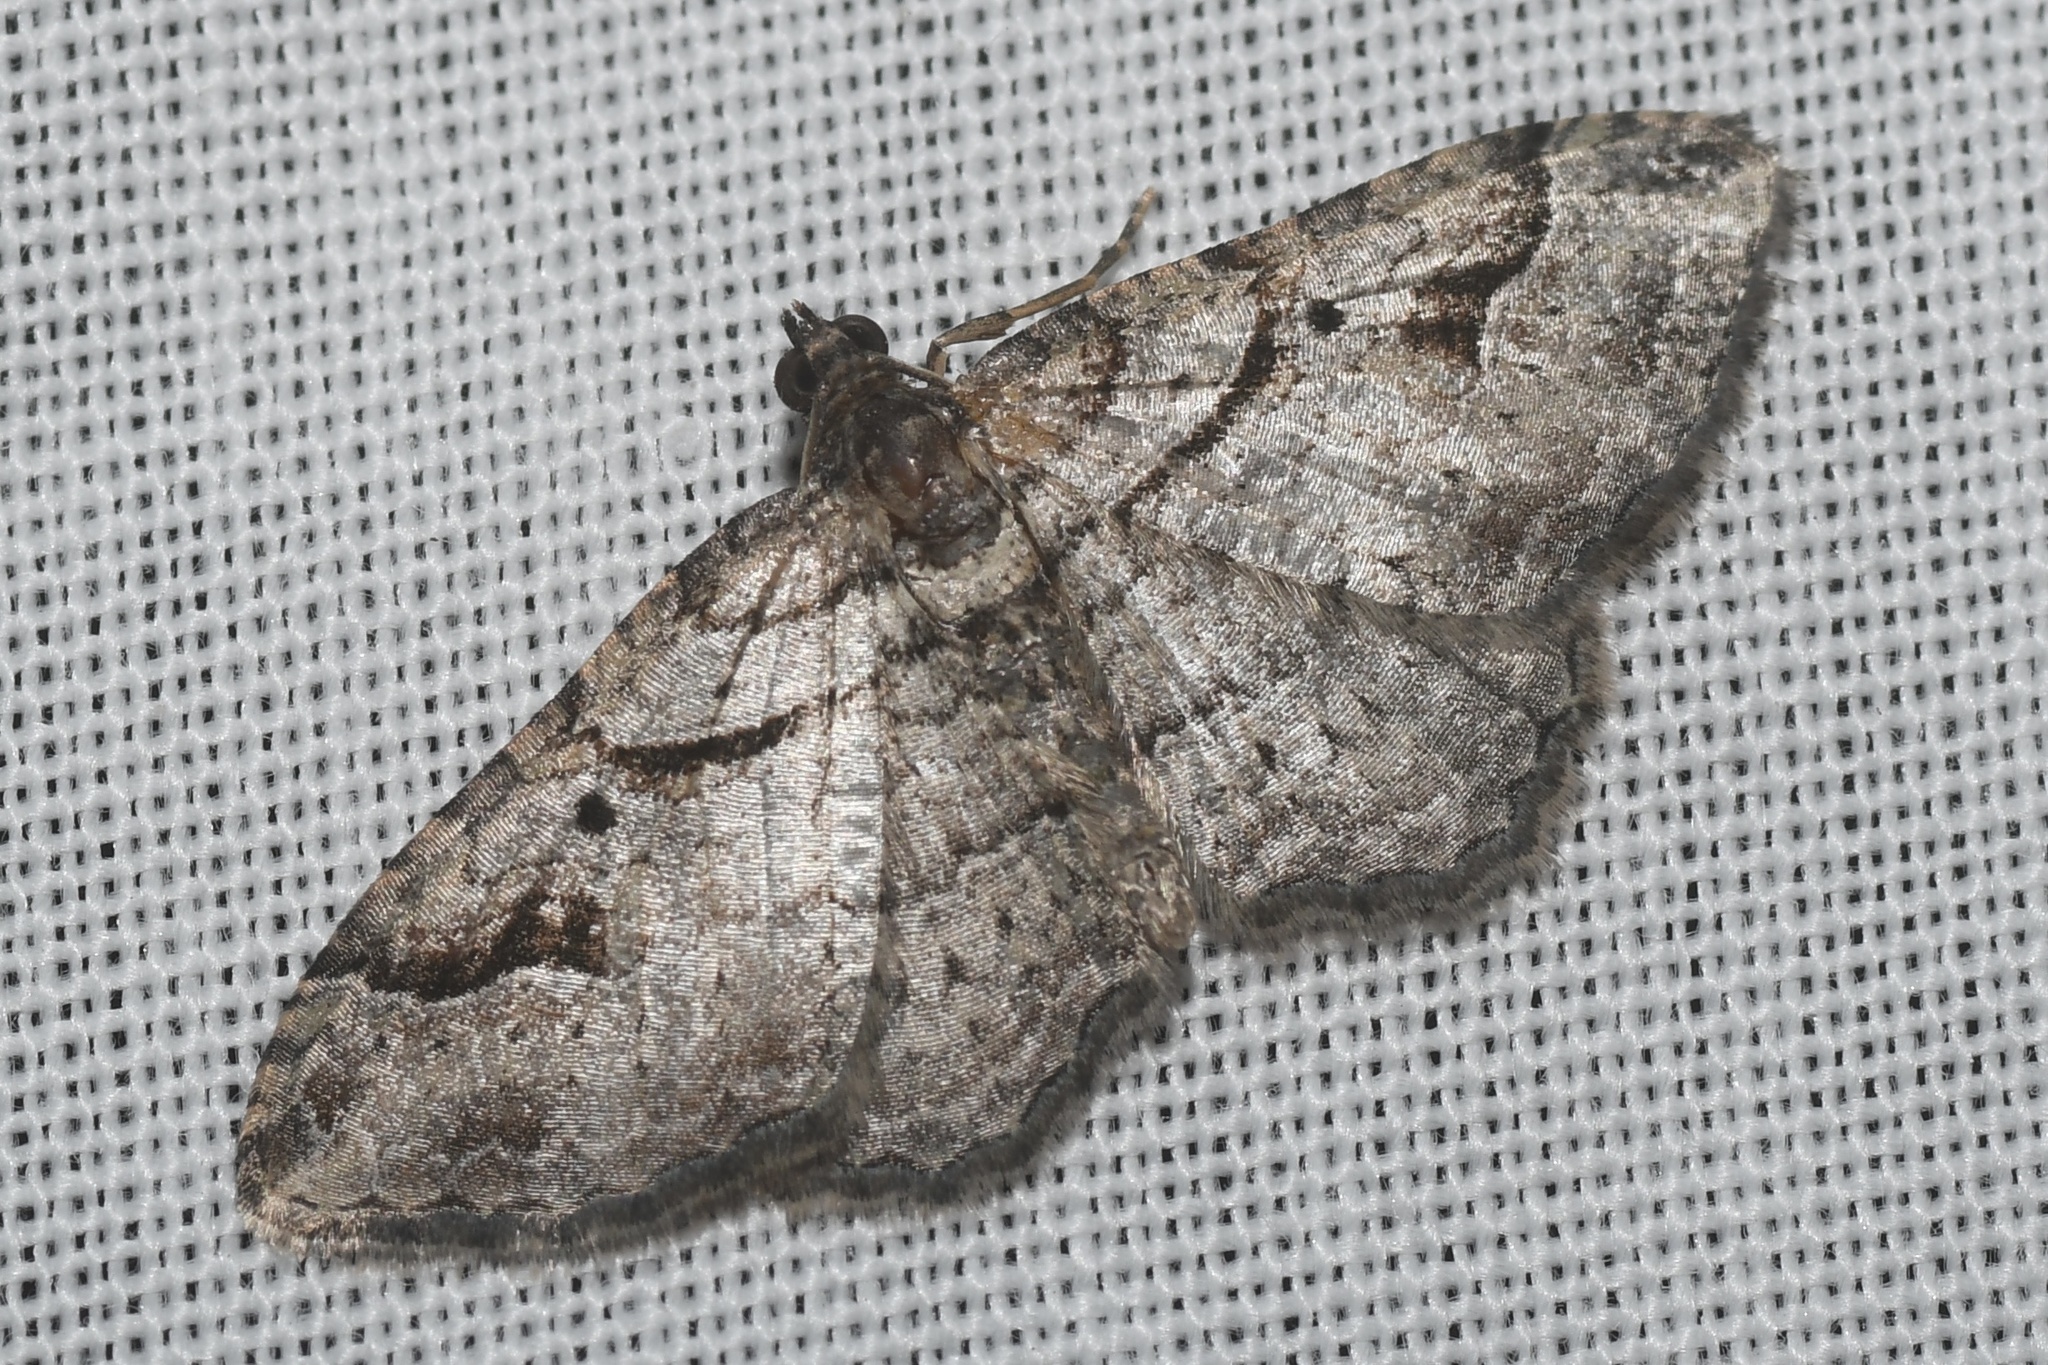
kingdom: Animalia
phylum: Arthropoda
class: Insecta
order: Lepidoptera
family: Geometridae
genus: Costaconvexa
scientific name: Costaconvexa centrostrigaria
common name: Bent-line carpet
